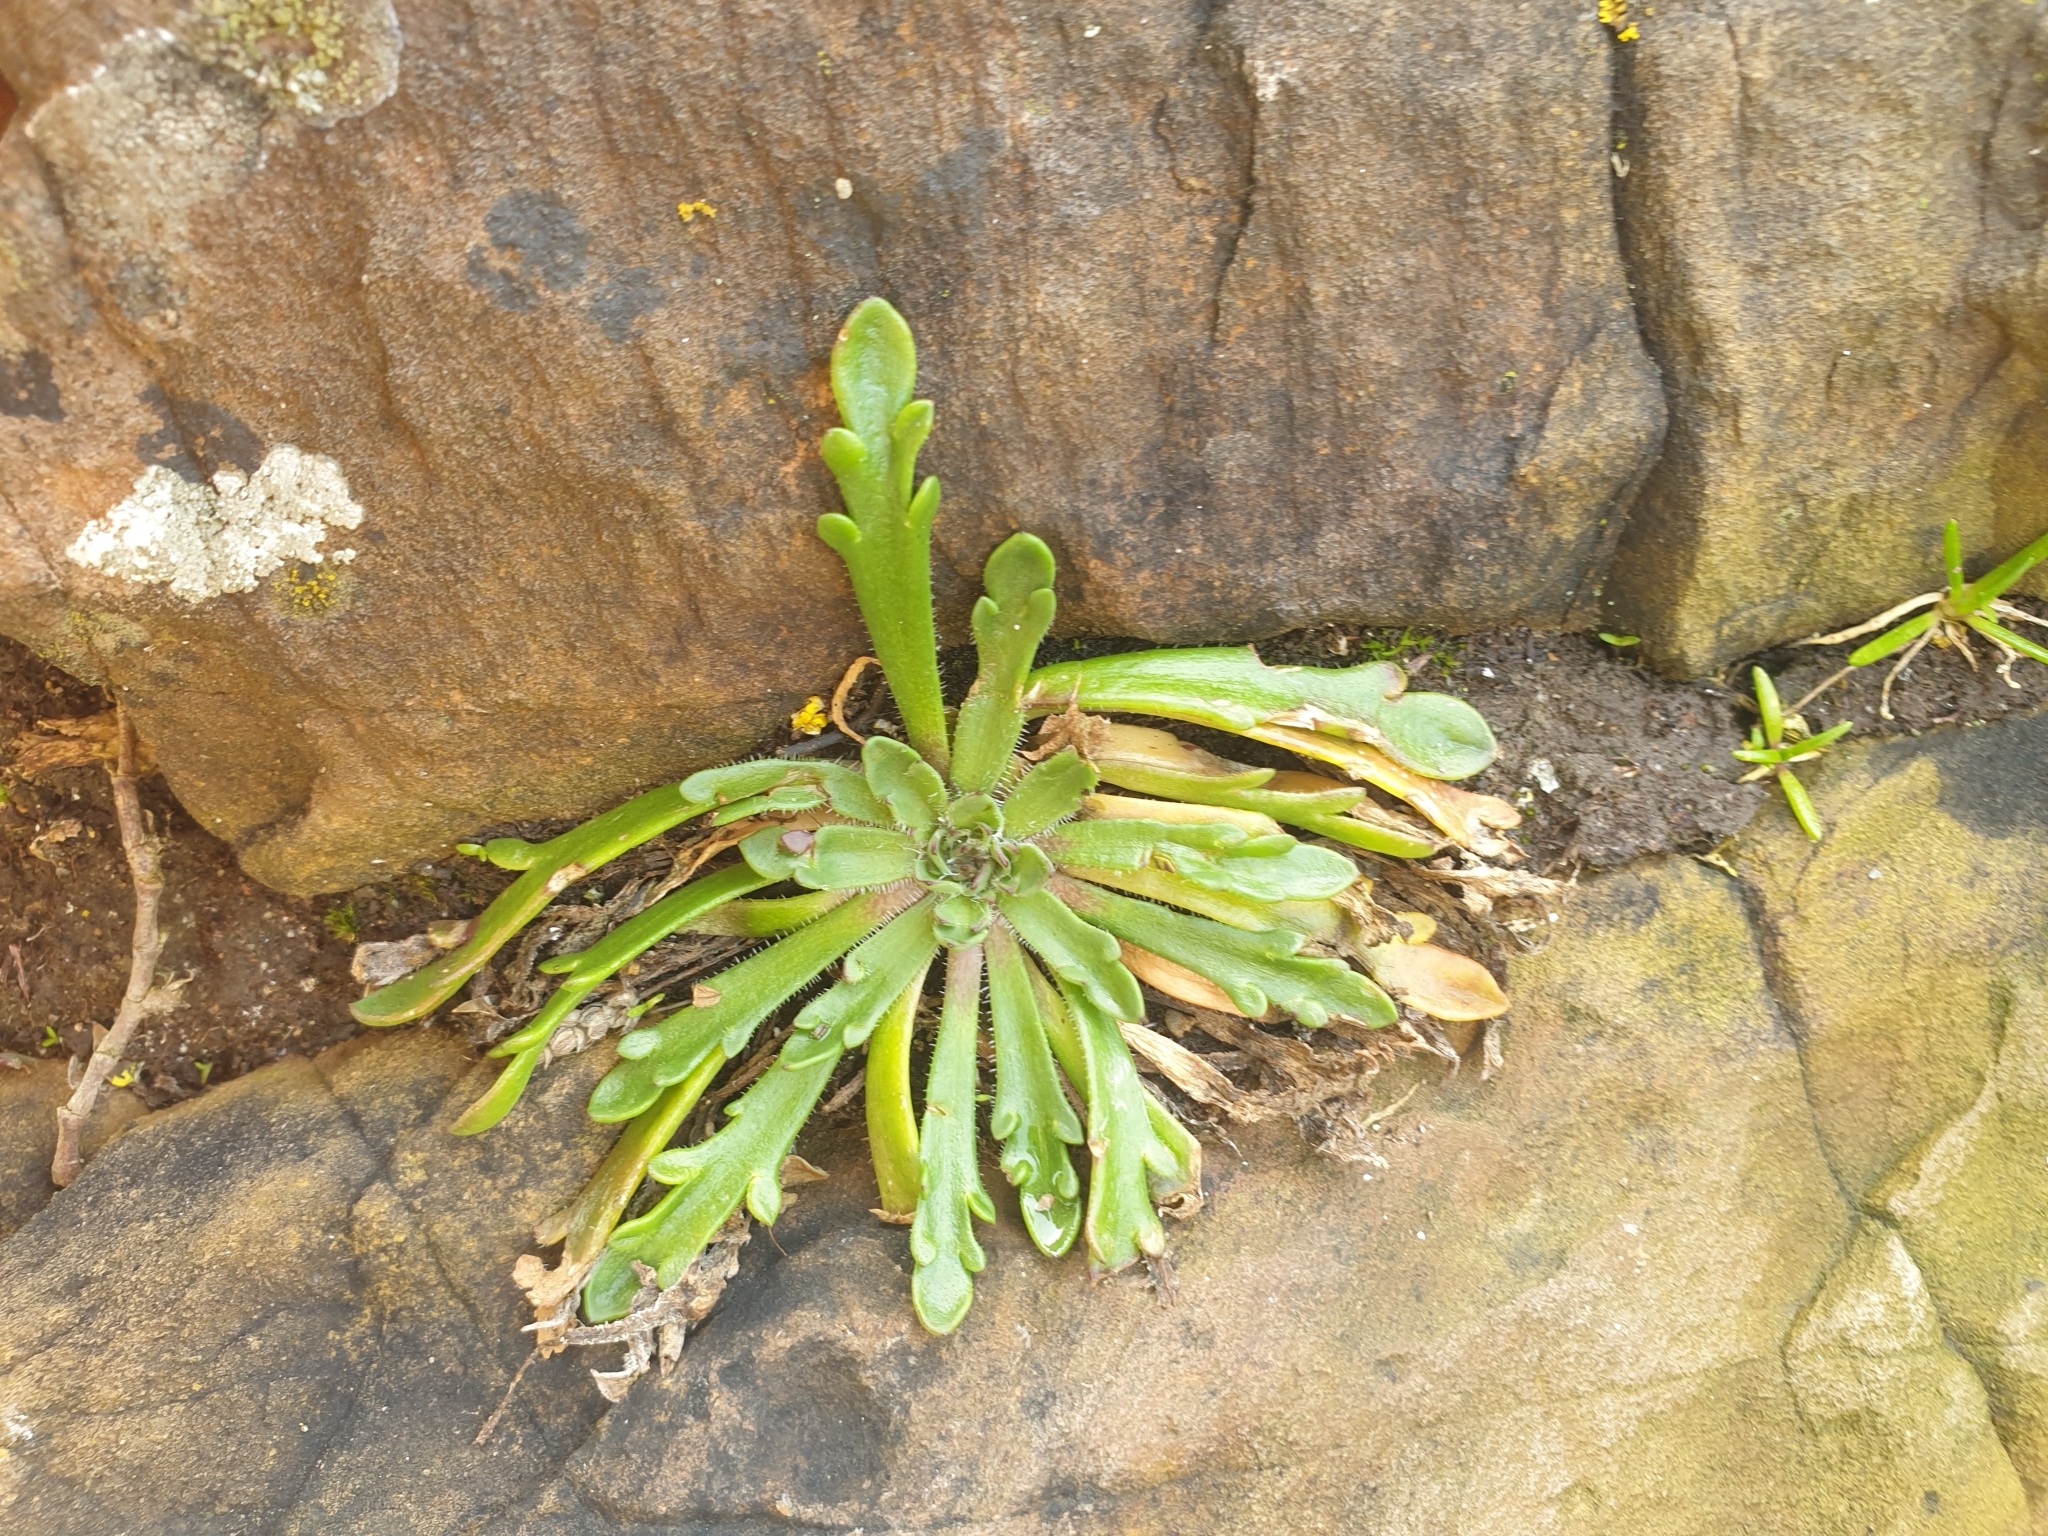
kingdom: Plantae
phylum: Tracheophyta
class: Magnoliopsida
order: Lamiales
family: Plantaginaceae
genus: Plantago
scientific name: Plantago coronopus
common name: Buck's-horn plantain
